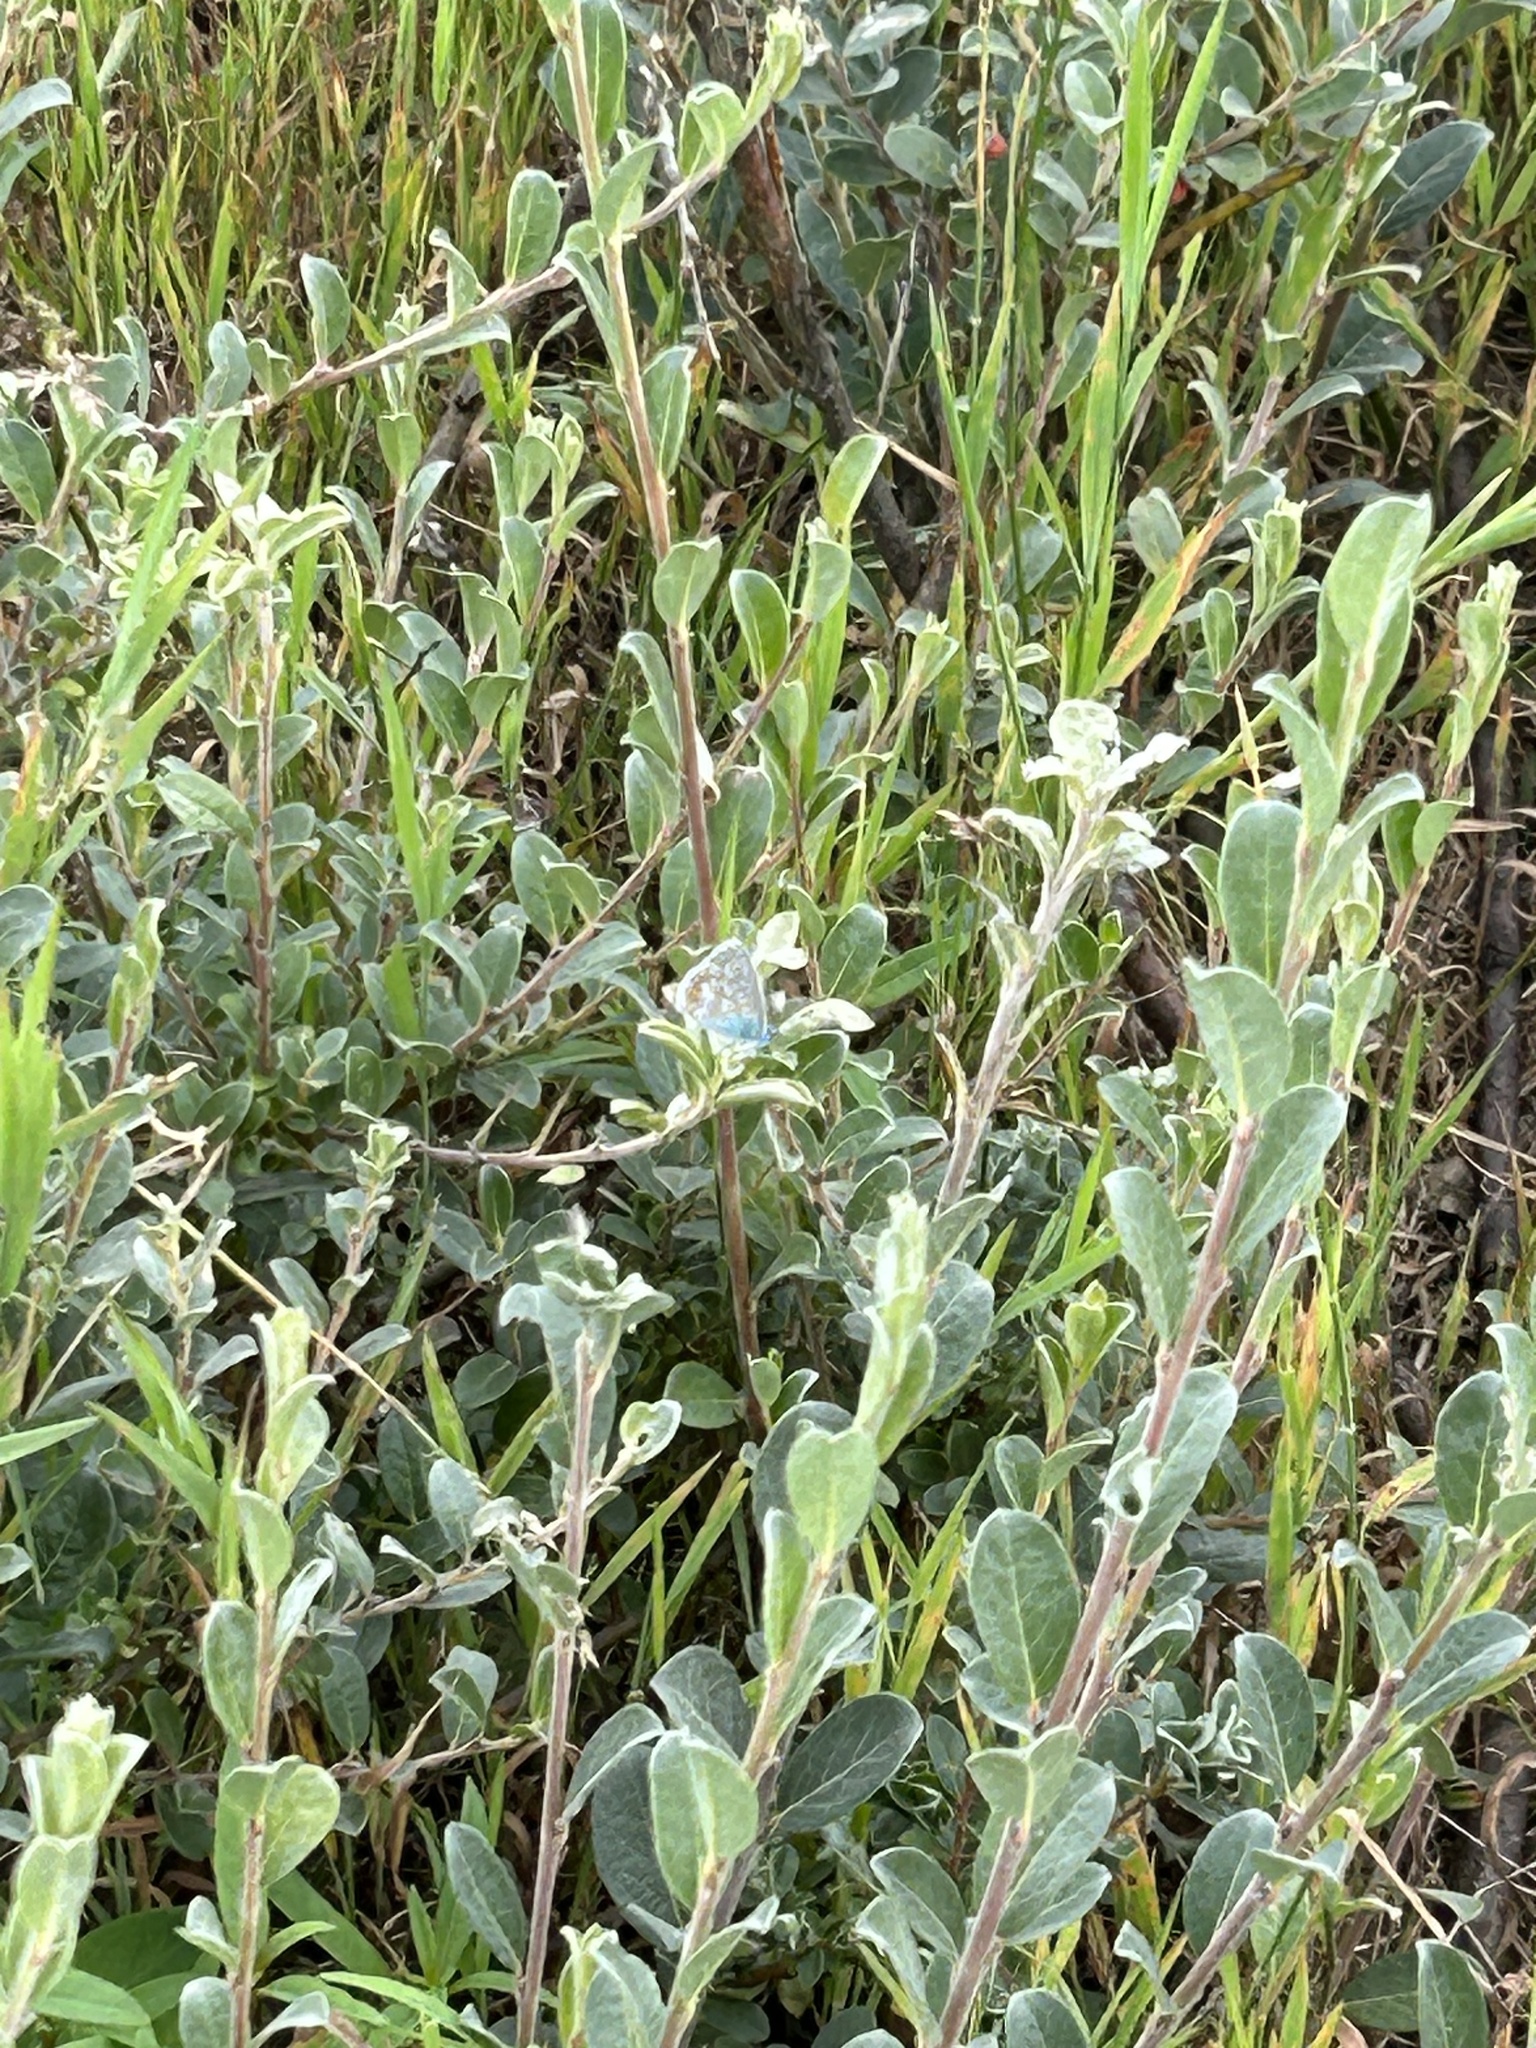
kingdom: Animalia
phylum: Arthropoda
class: Insecta
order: Lepidoptera
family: Lycaenidae
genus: Polyommatus
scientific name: Polyommatus icarus
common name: Common blue
